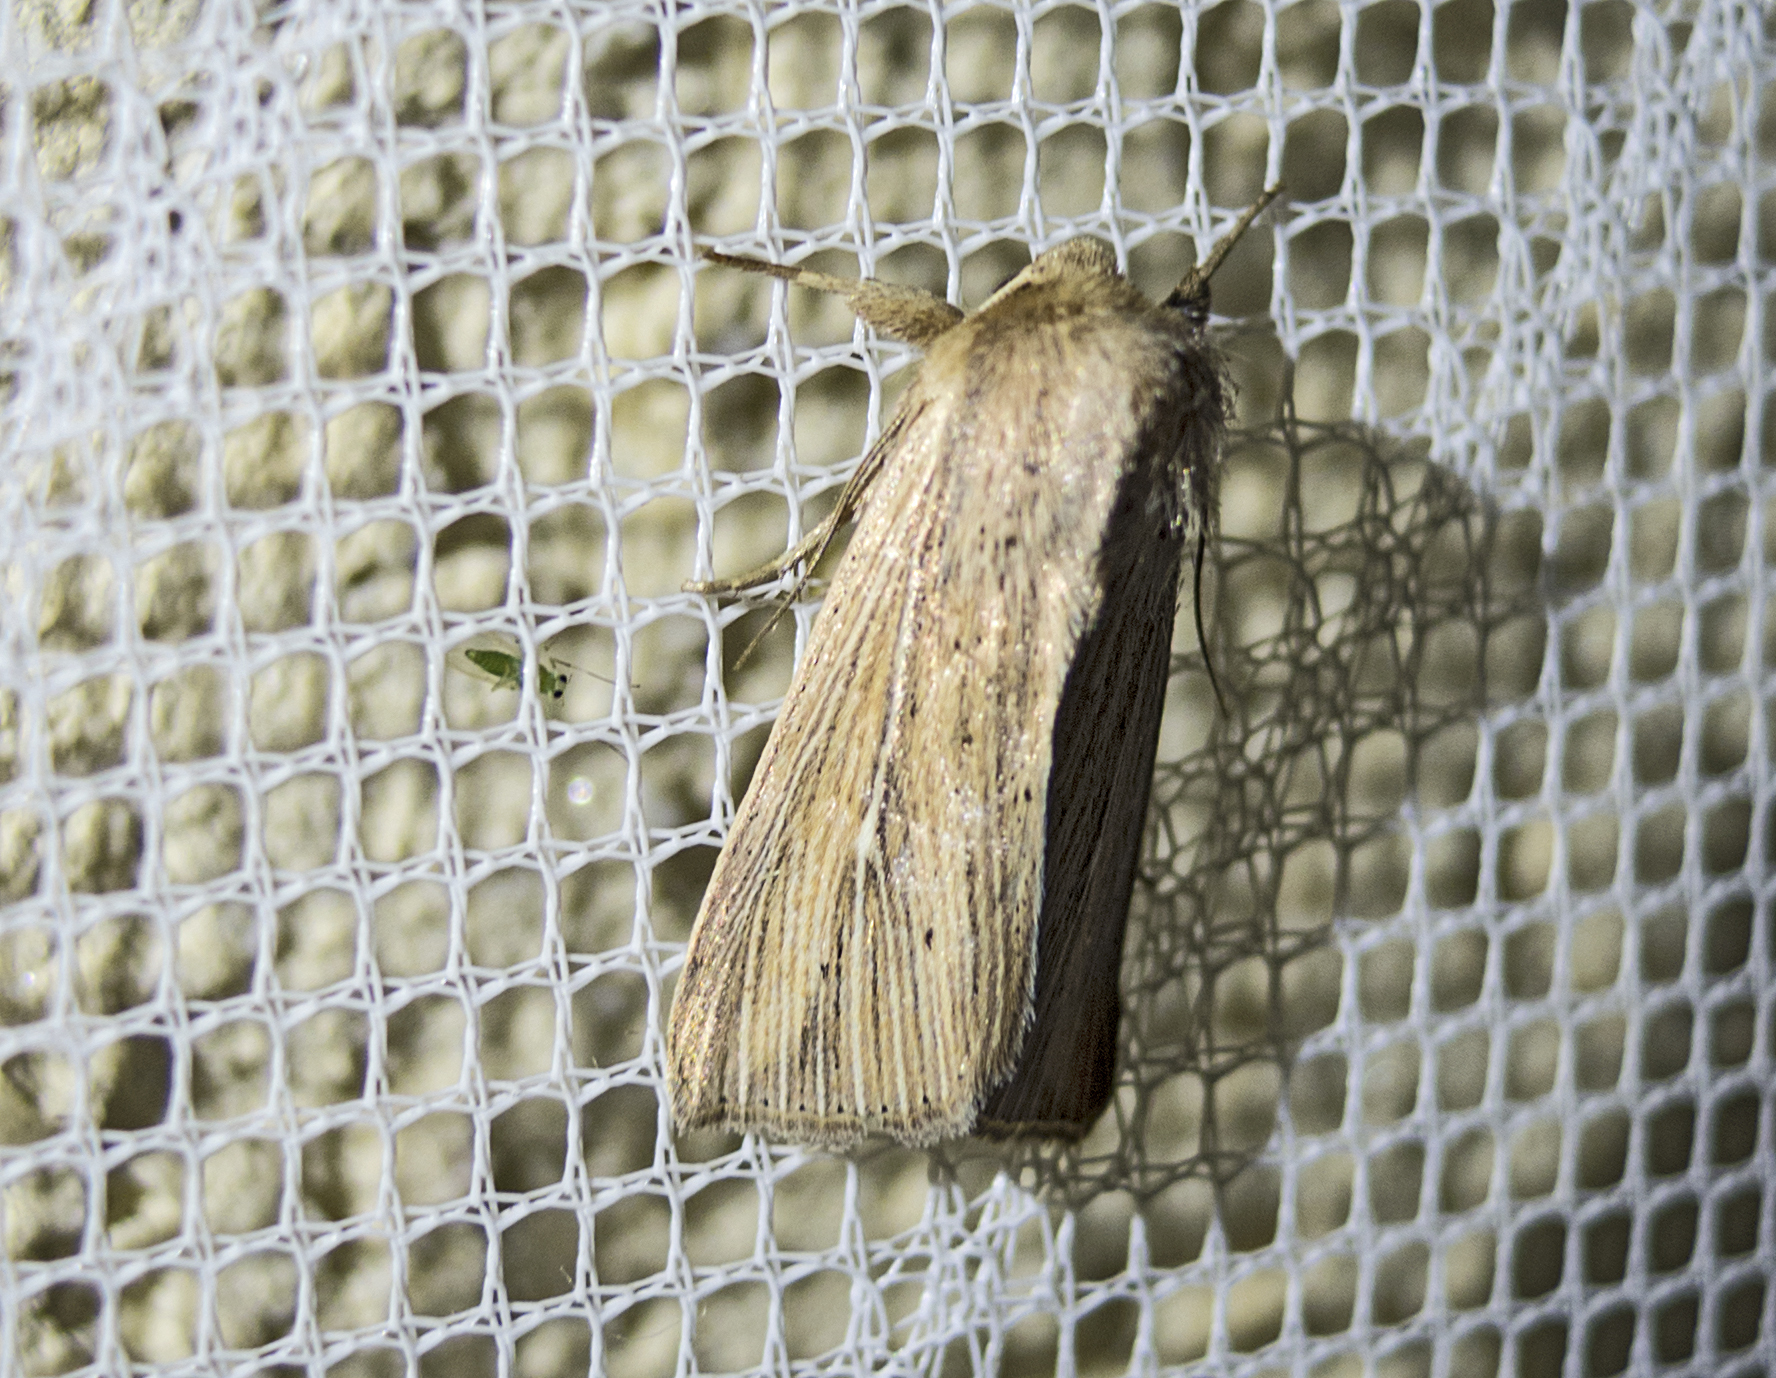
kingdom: Animalia
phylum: Arthropoda
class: Insecta
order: Lepidoptera
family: Noctuidae
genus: Mythimna
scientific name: Mythimna congrua
